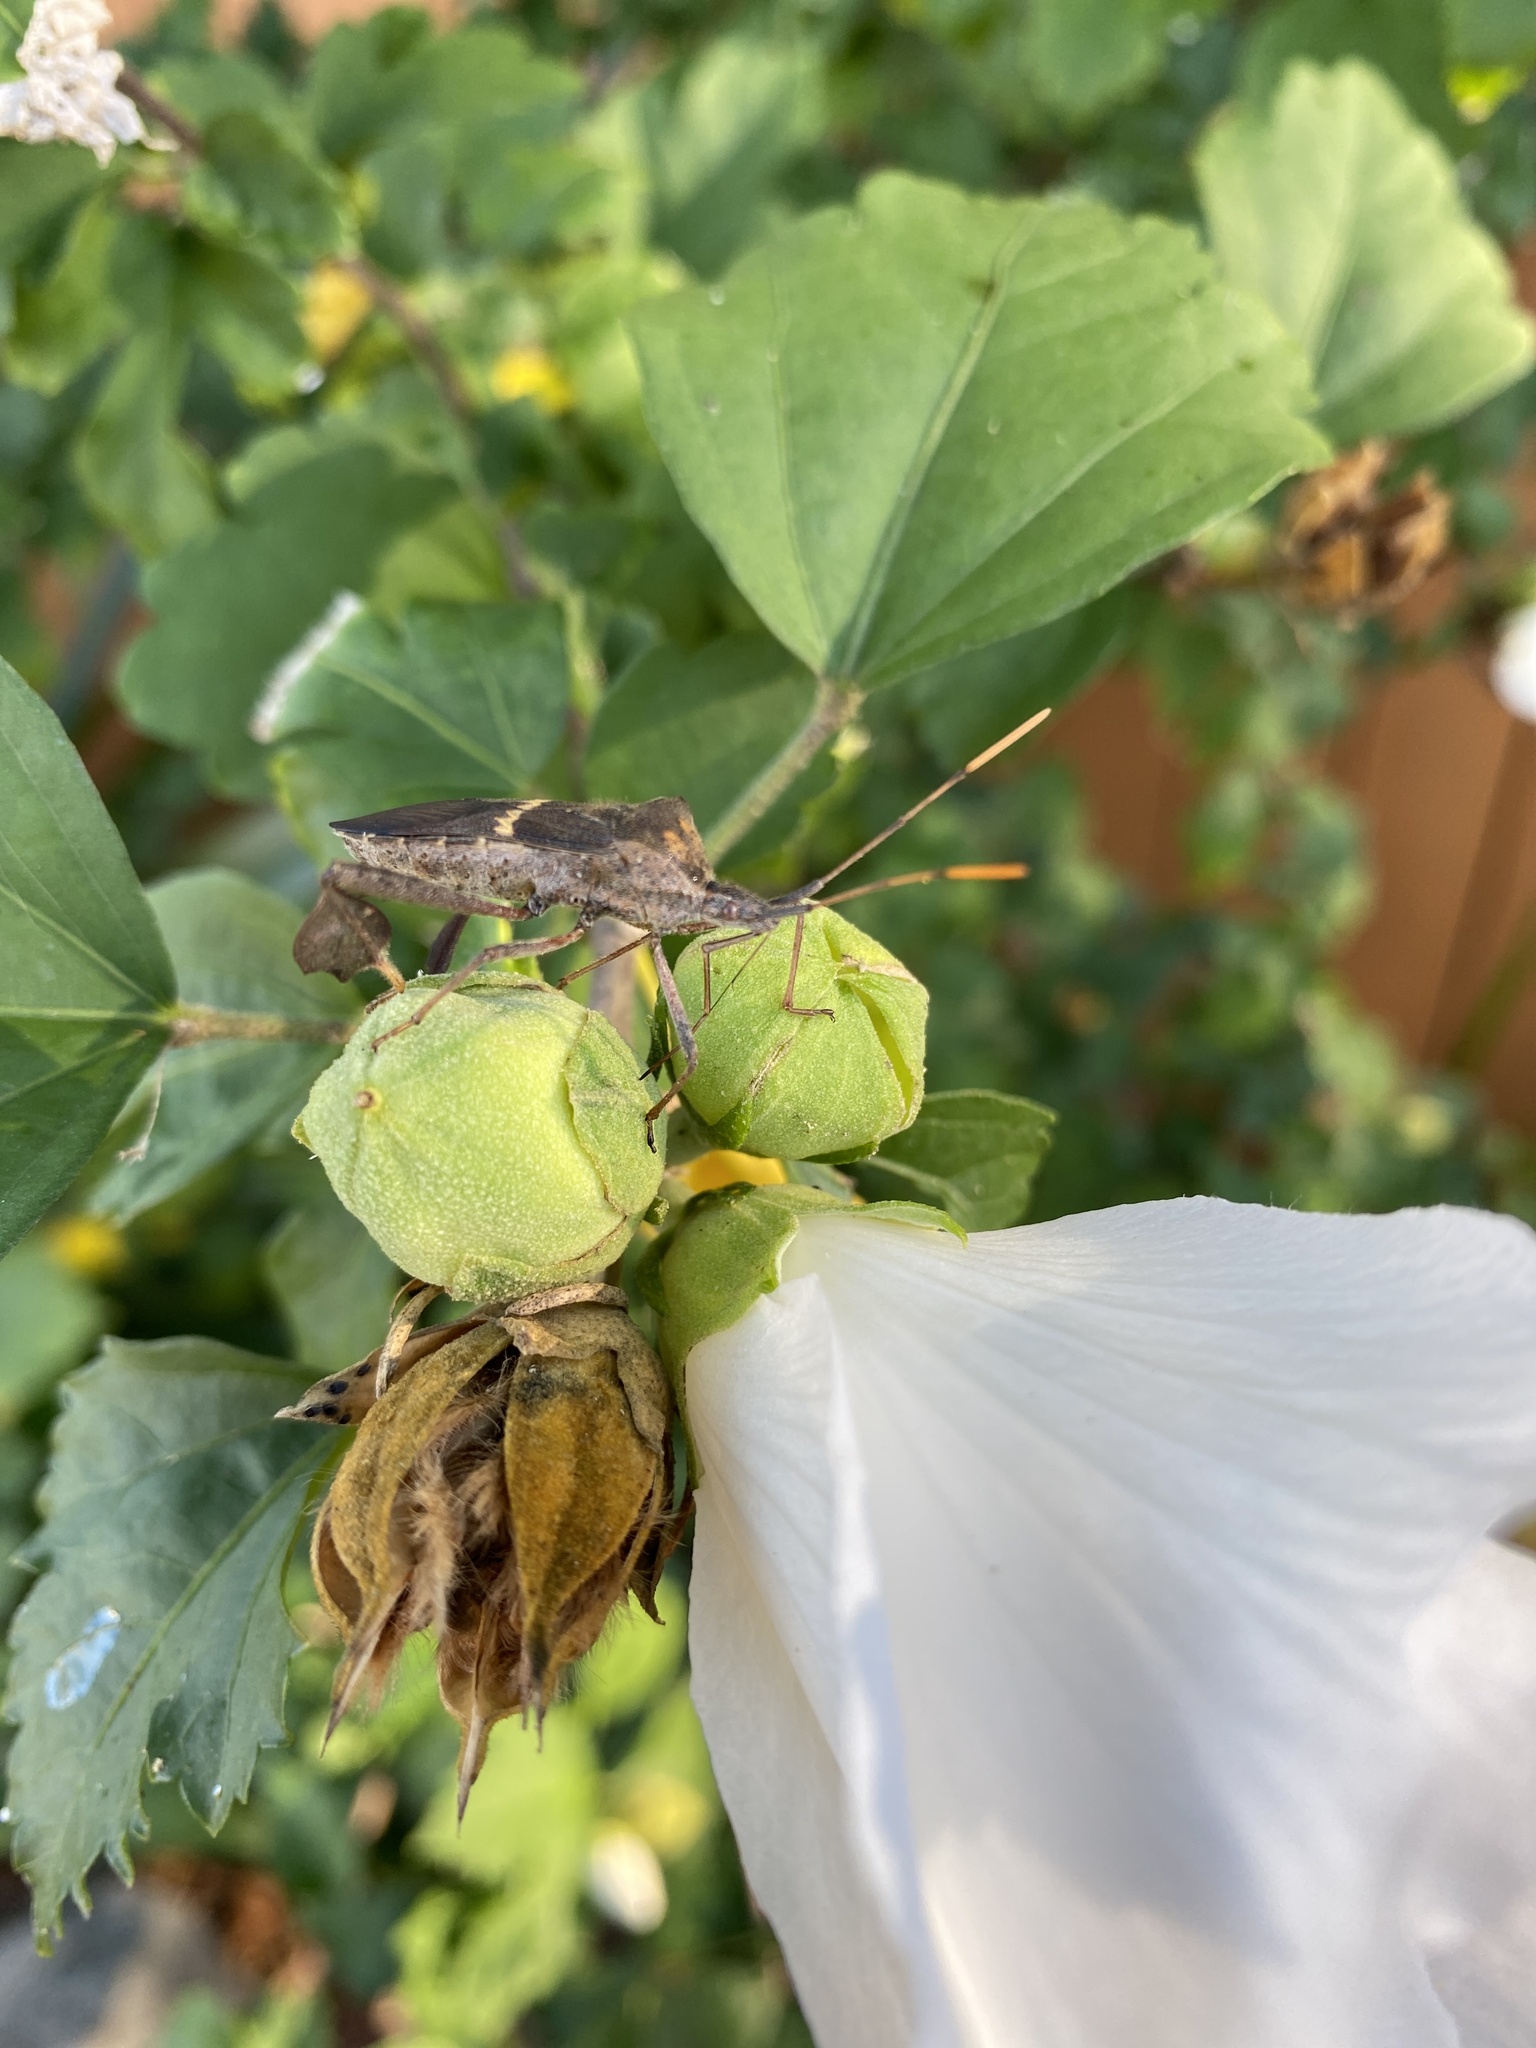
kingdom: Animalia
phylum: Arthropoda
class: Insecta
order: Hemiptera
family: Coreidae
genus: Leptoglossus
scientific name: Leptoglossus zonatus
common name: Large-legged bug
